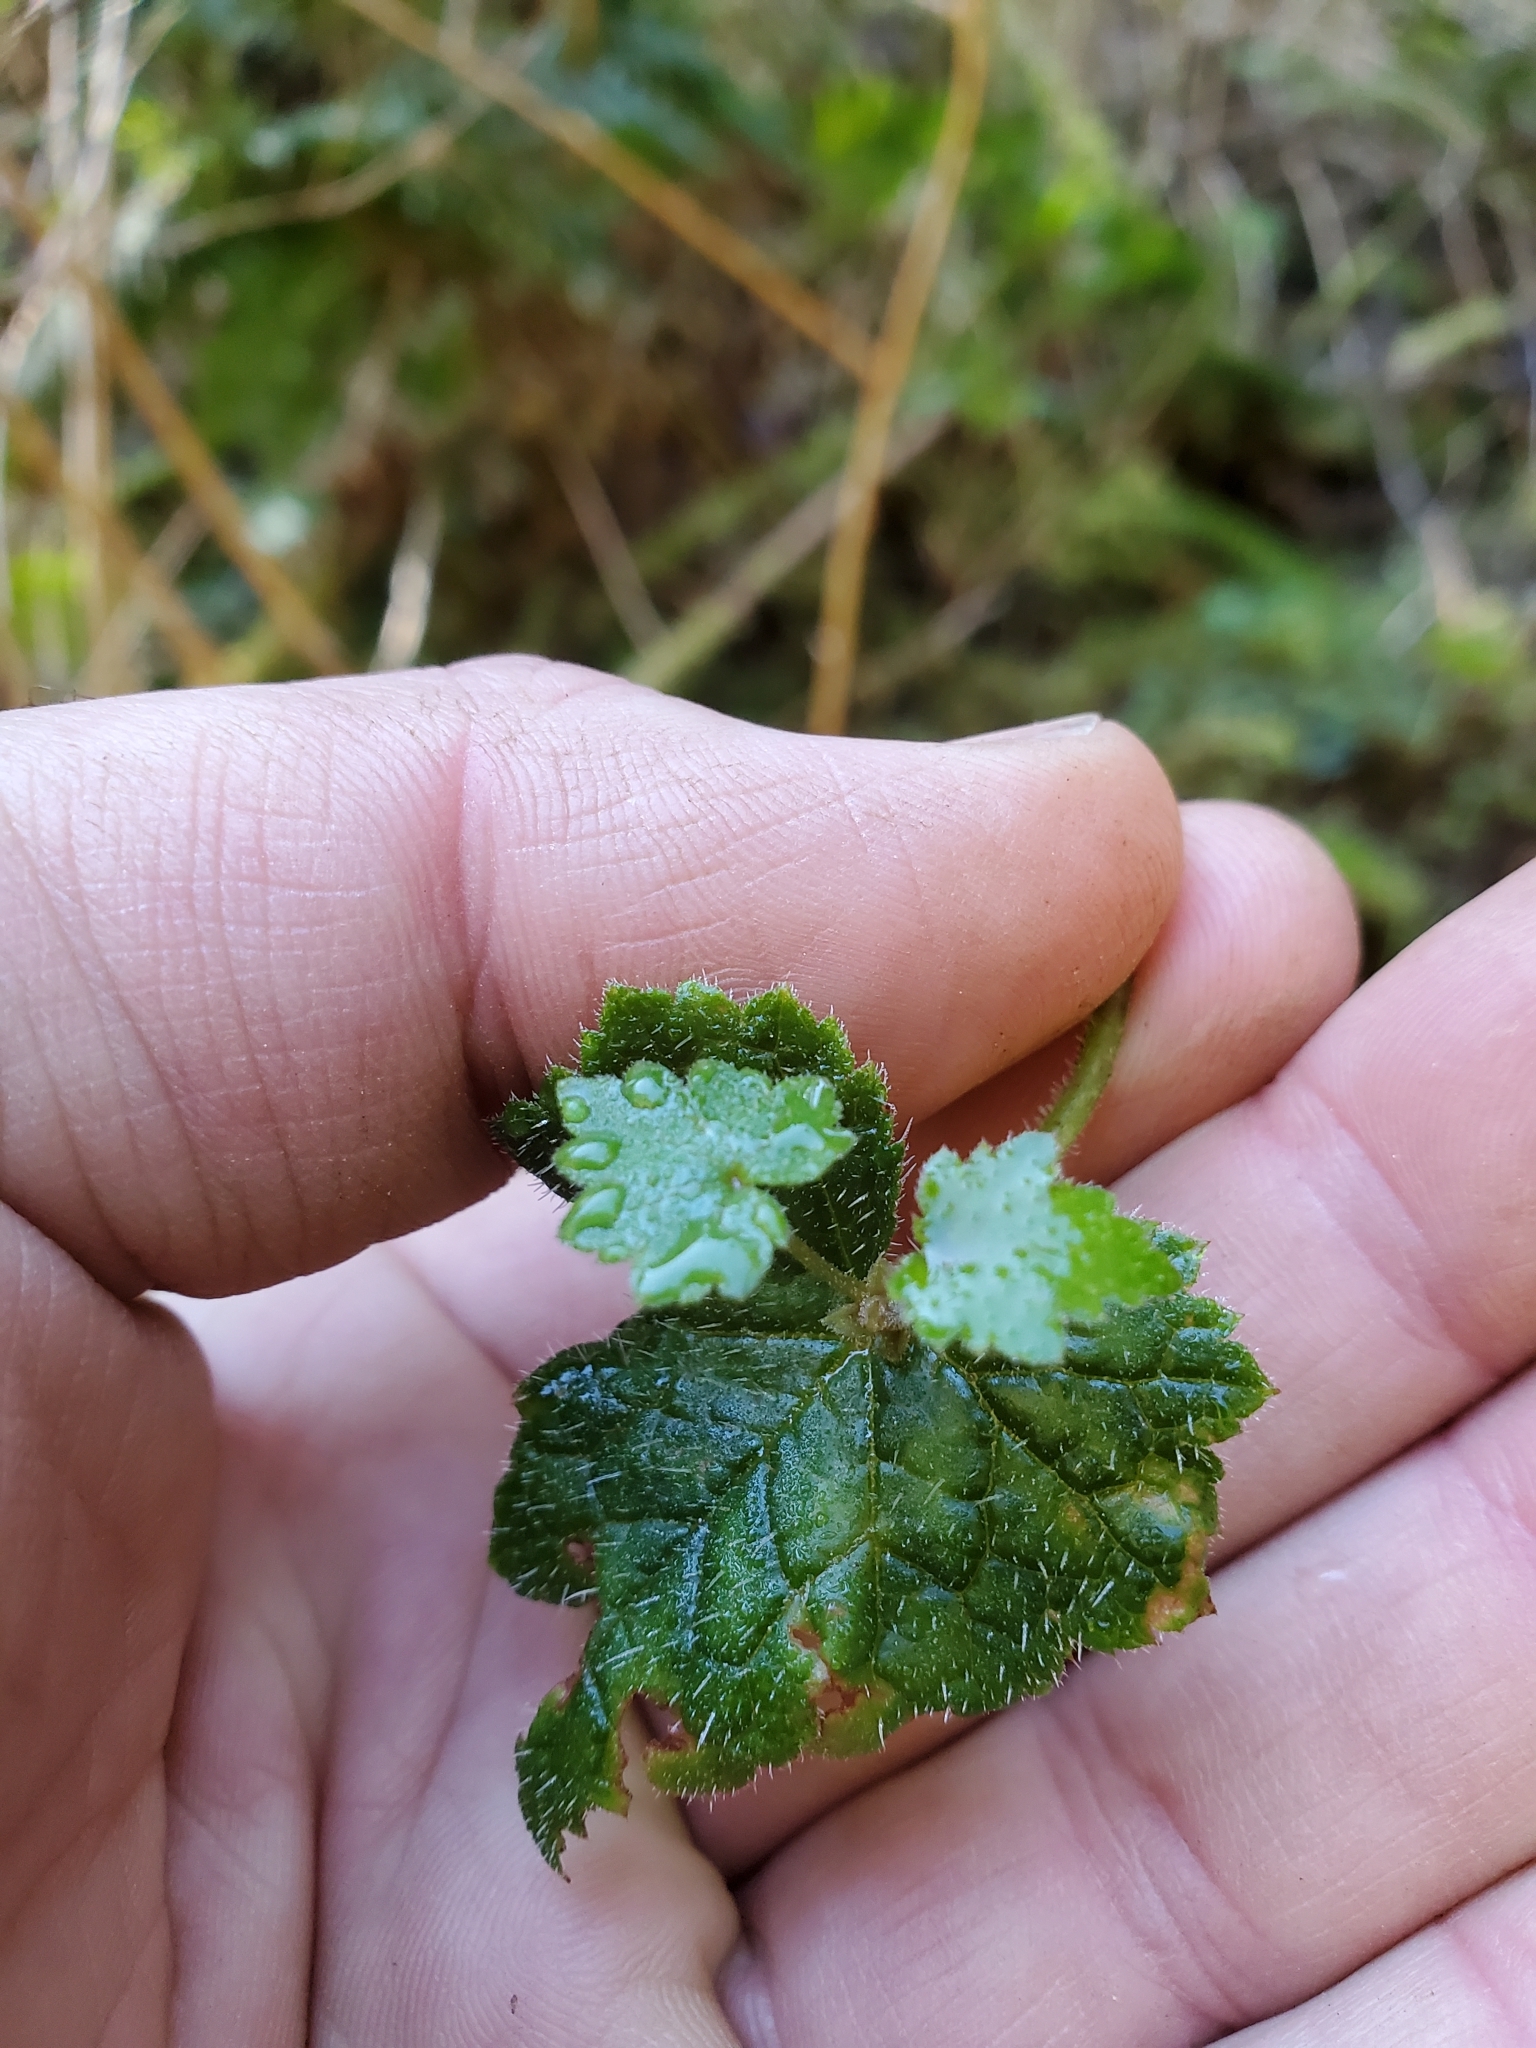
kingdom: Plantae
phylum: Tracheophyta
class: Magnoliopsida
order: Saxifragales
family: Saxifragaceae
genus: Tolmiea
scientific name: Tolmiea menziesii
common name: Pick-a-back-plant
